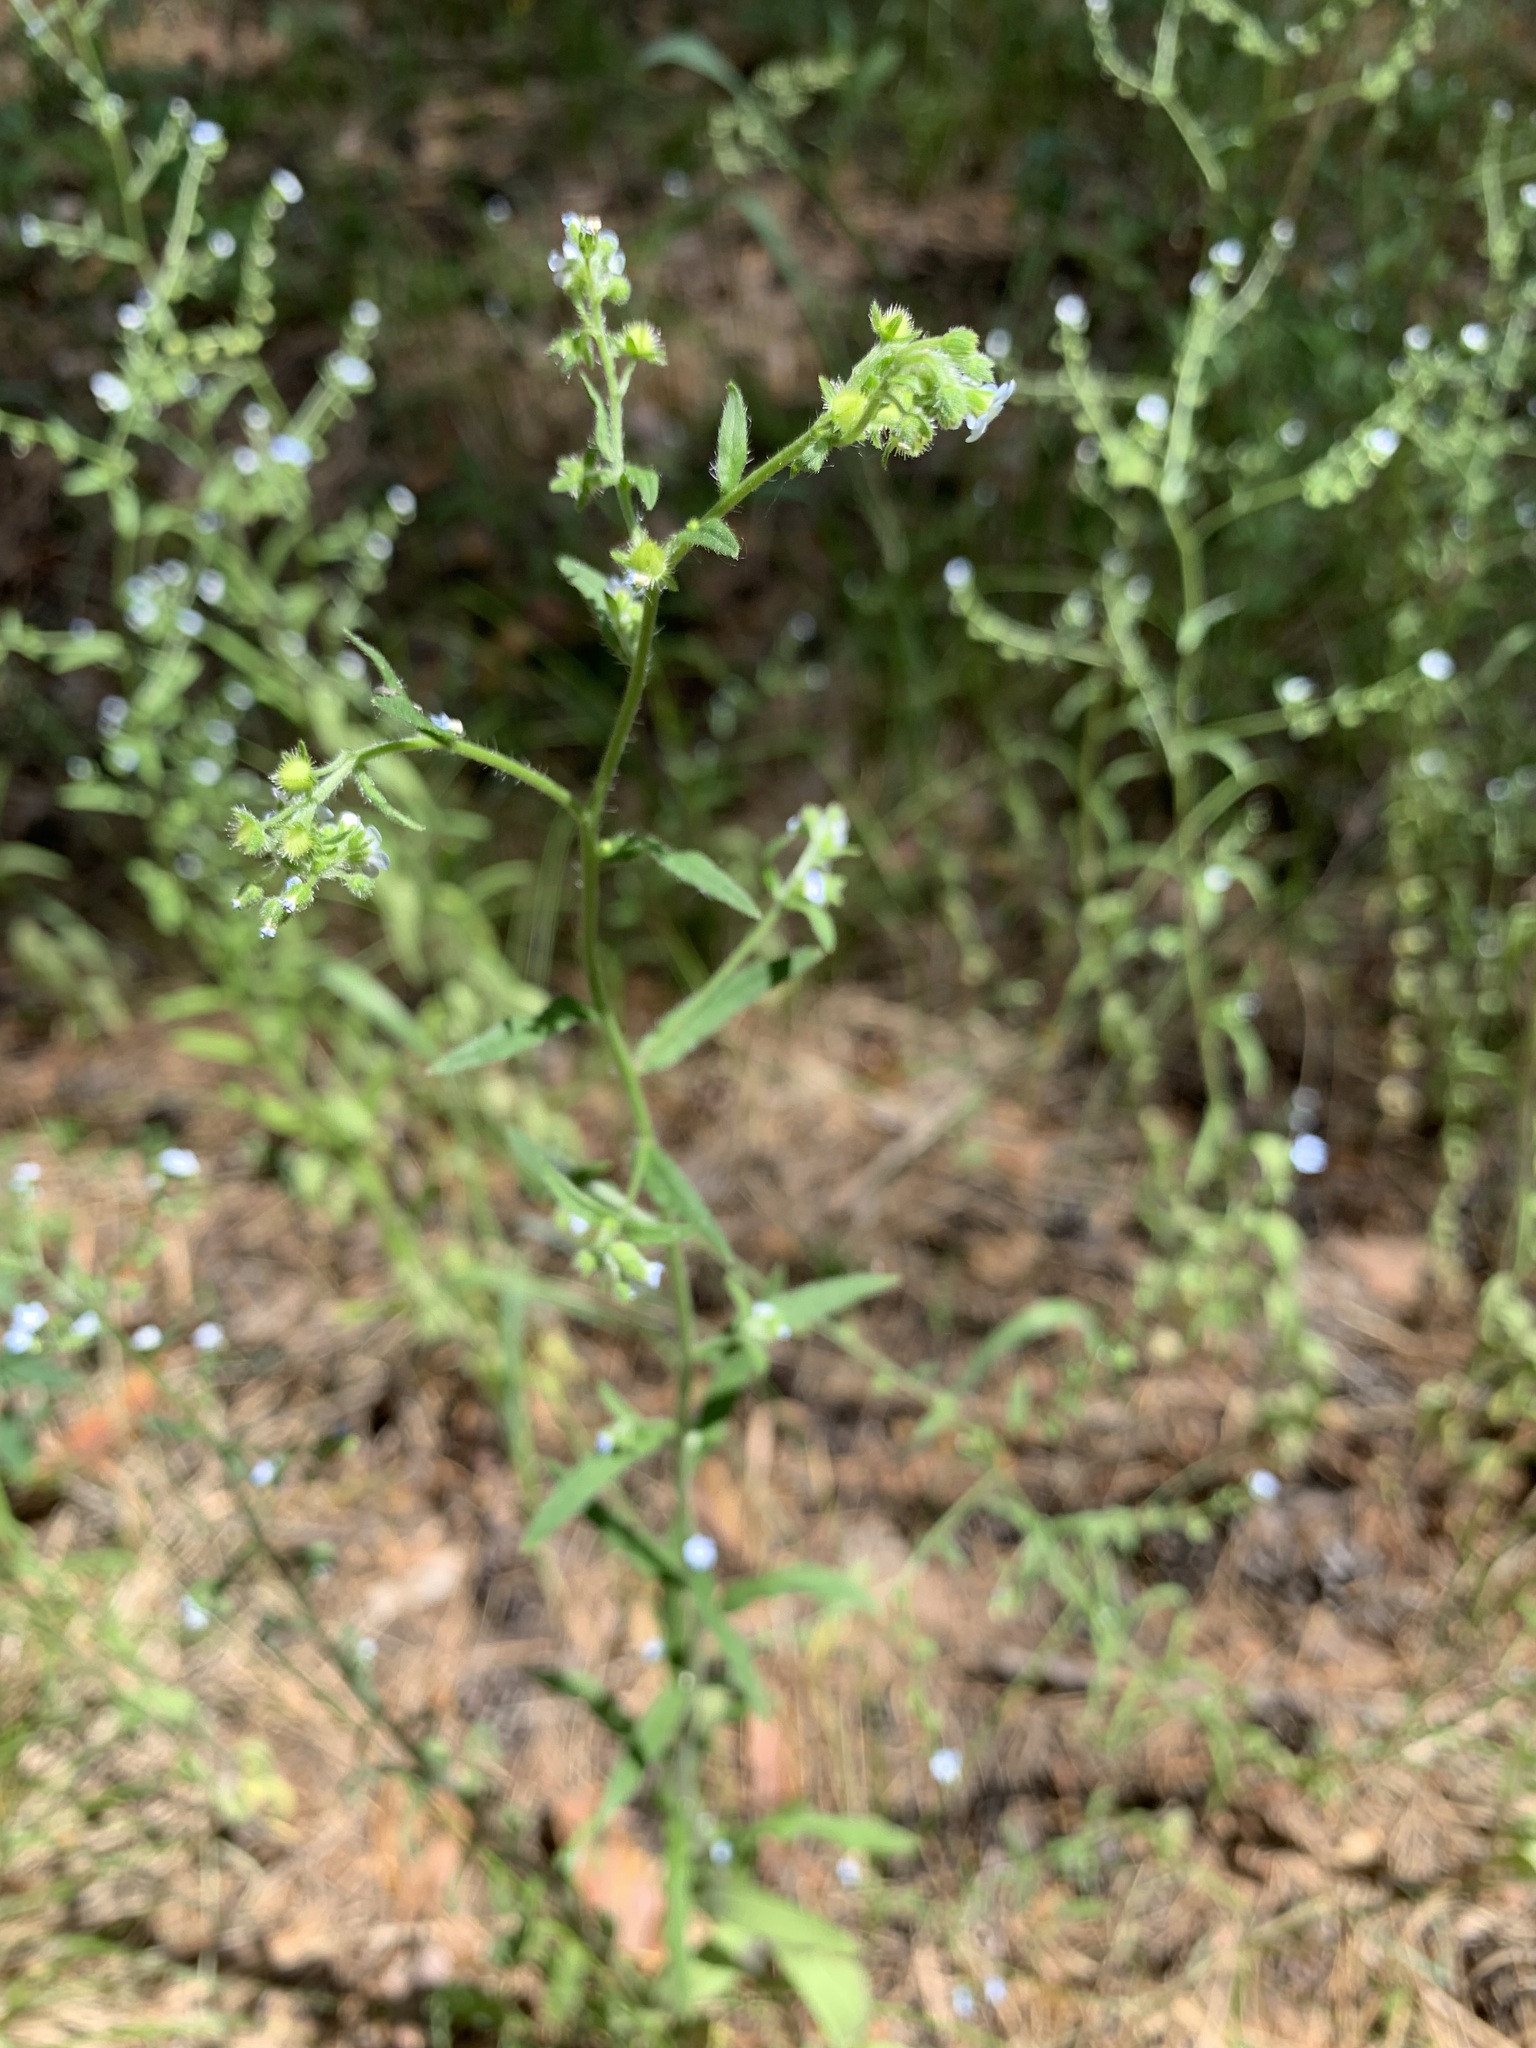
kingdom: Plantae
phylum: Tracheophyta
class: Magnoliopsida
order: Boraginales
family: Boraginaceae
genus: Hackelia
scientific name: Hackelia deflexa
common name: Nodding stickseed
